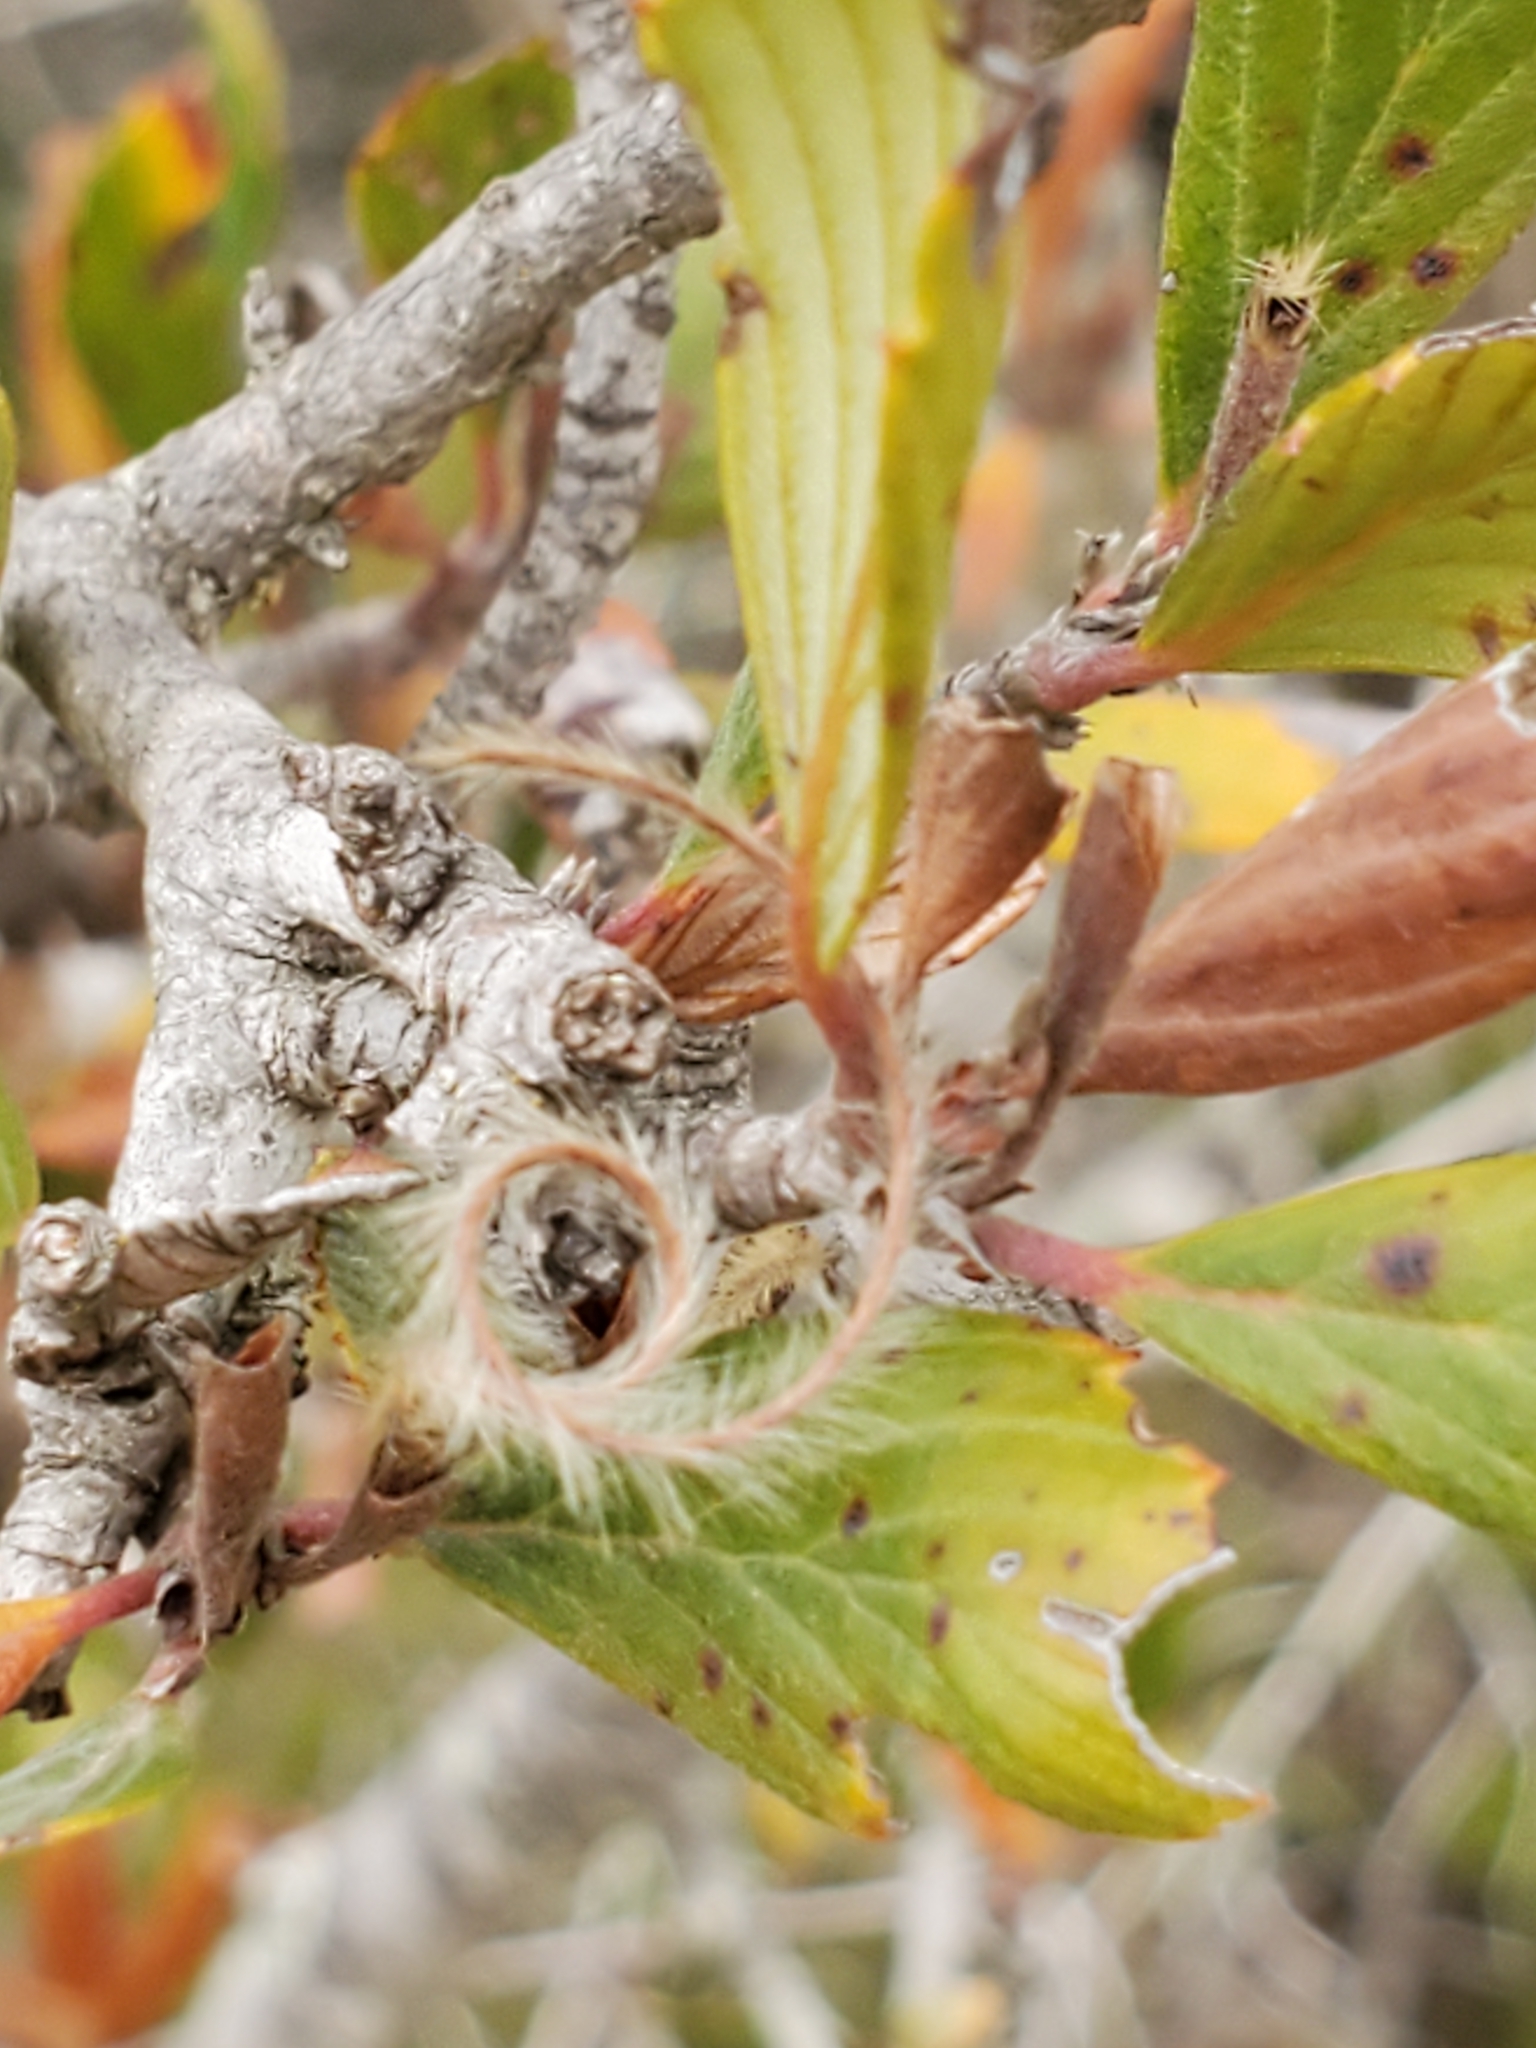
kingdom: Plantae
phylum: Tracheophyta
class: Magnoliopsida
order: Rosales
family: Rosaceae
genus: Cercocarpus
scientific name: Cercocarpus montanus
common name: Alder-leaf cercocarpus
